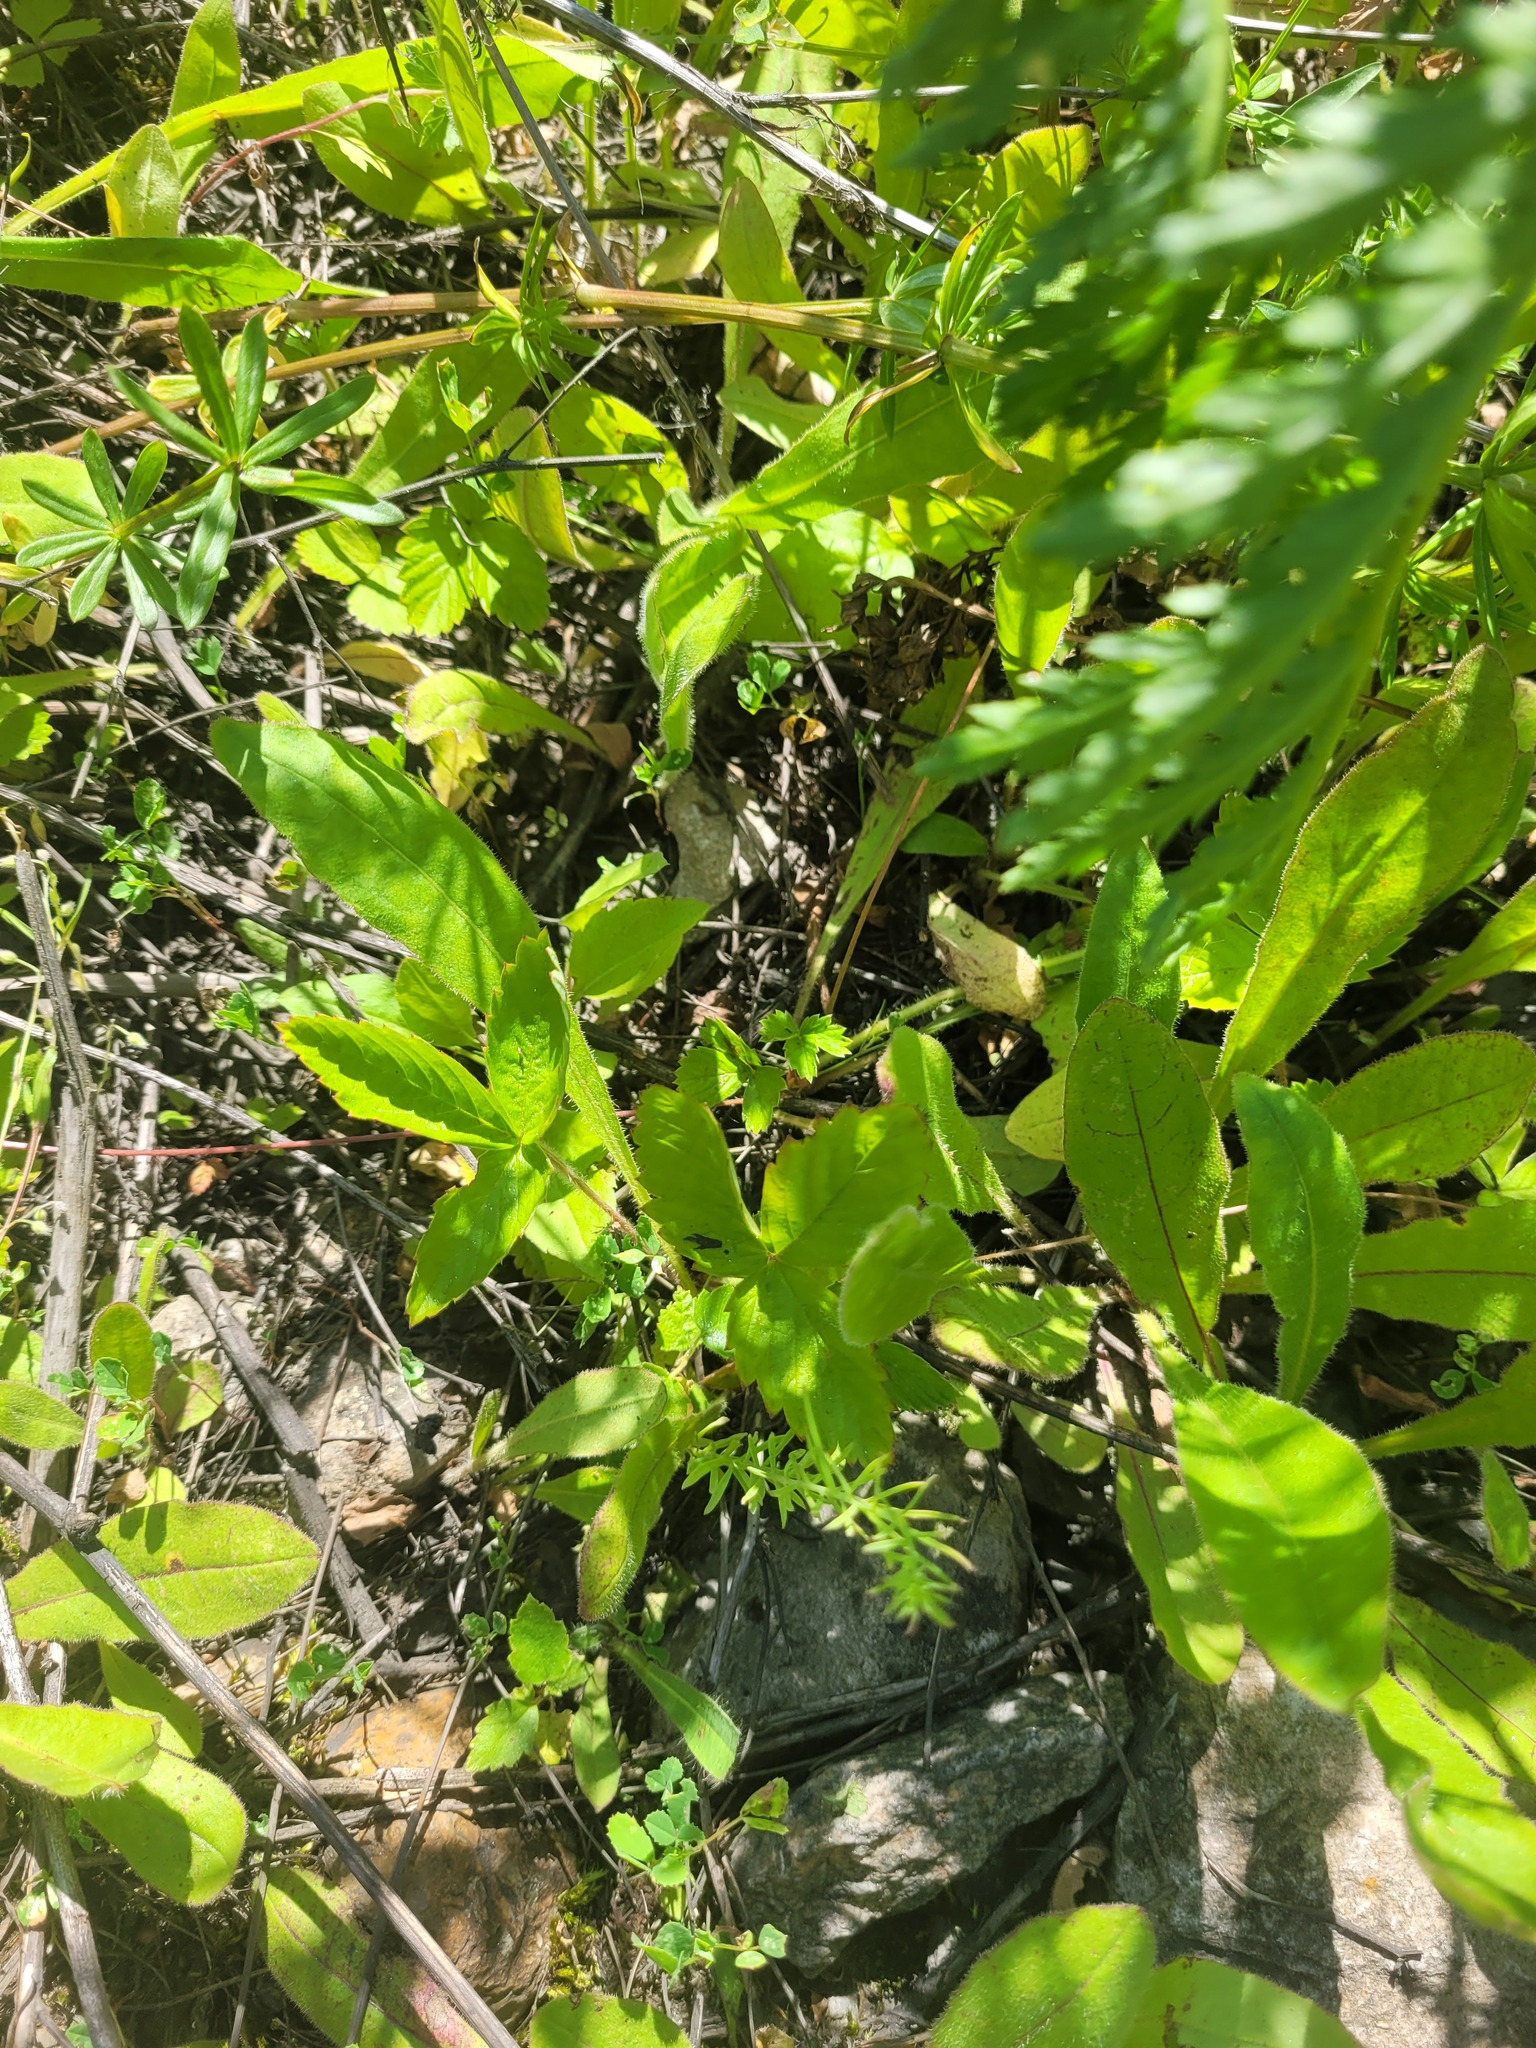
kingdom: Plantae
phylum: Tracheophyta
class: Magnoliopsida
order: Rosales
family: Rosaceae
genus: Fragaria
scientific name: Fragaria vesca
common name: Wild strawberry
